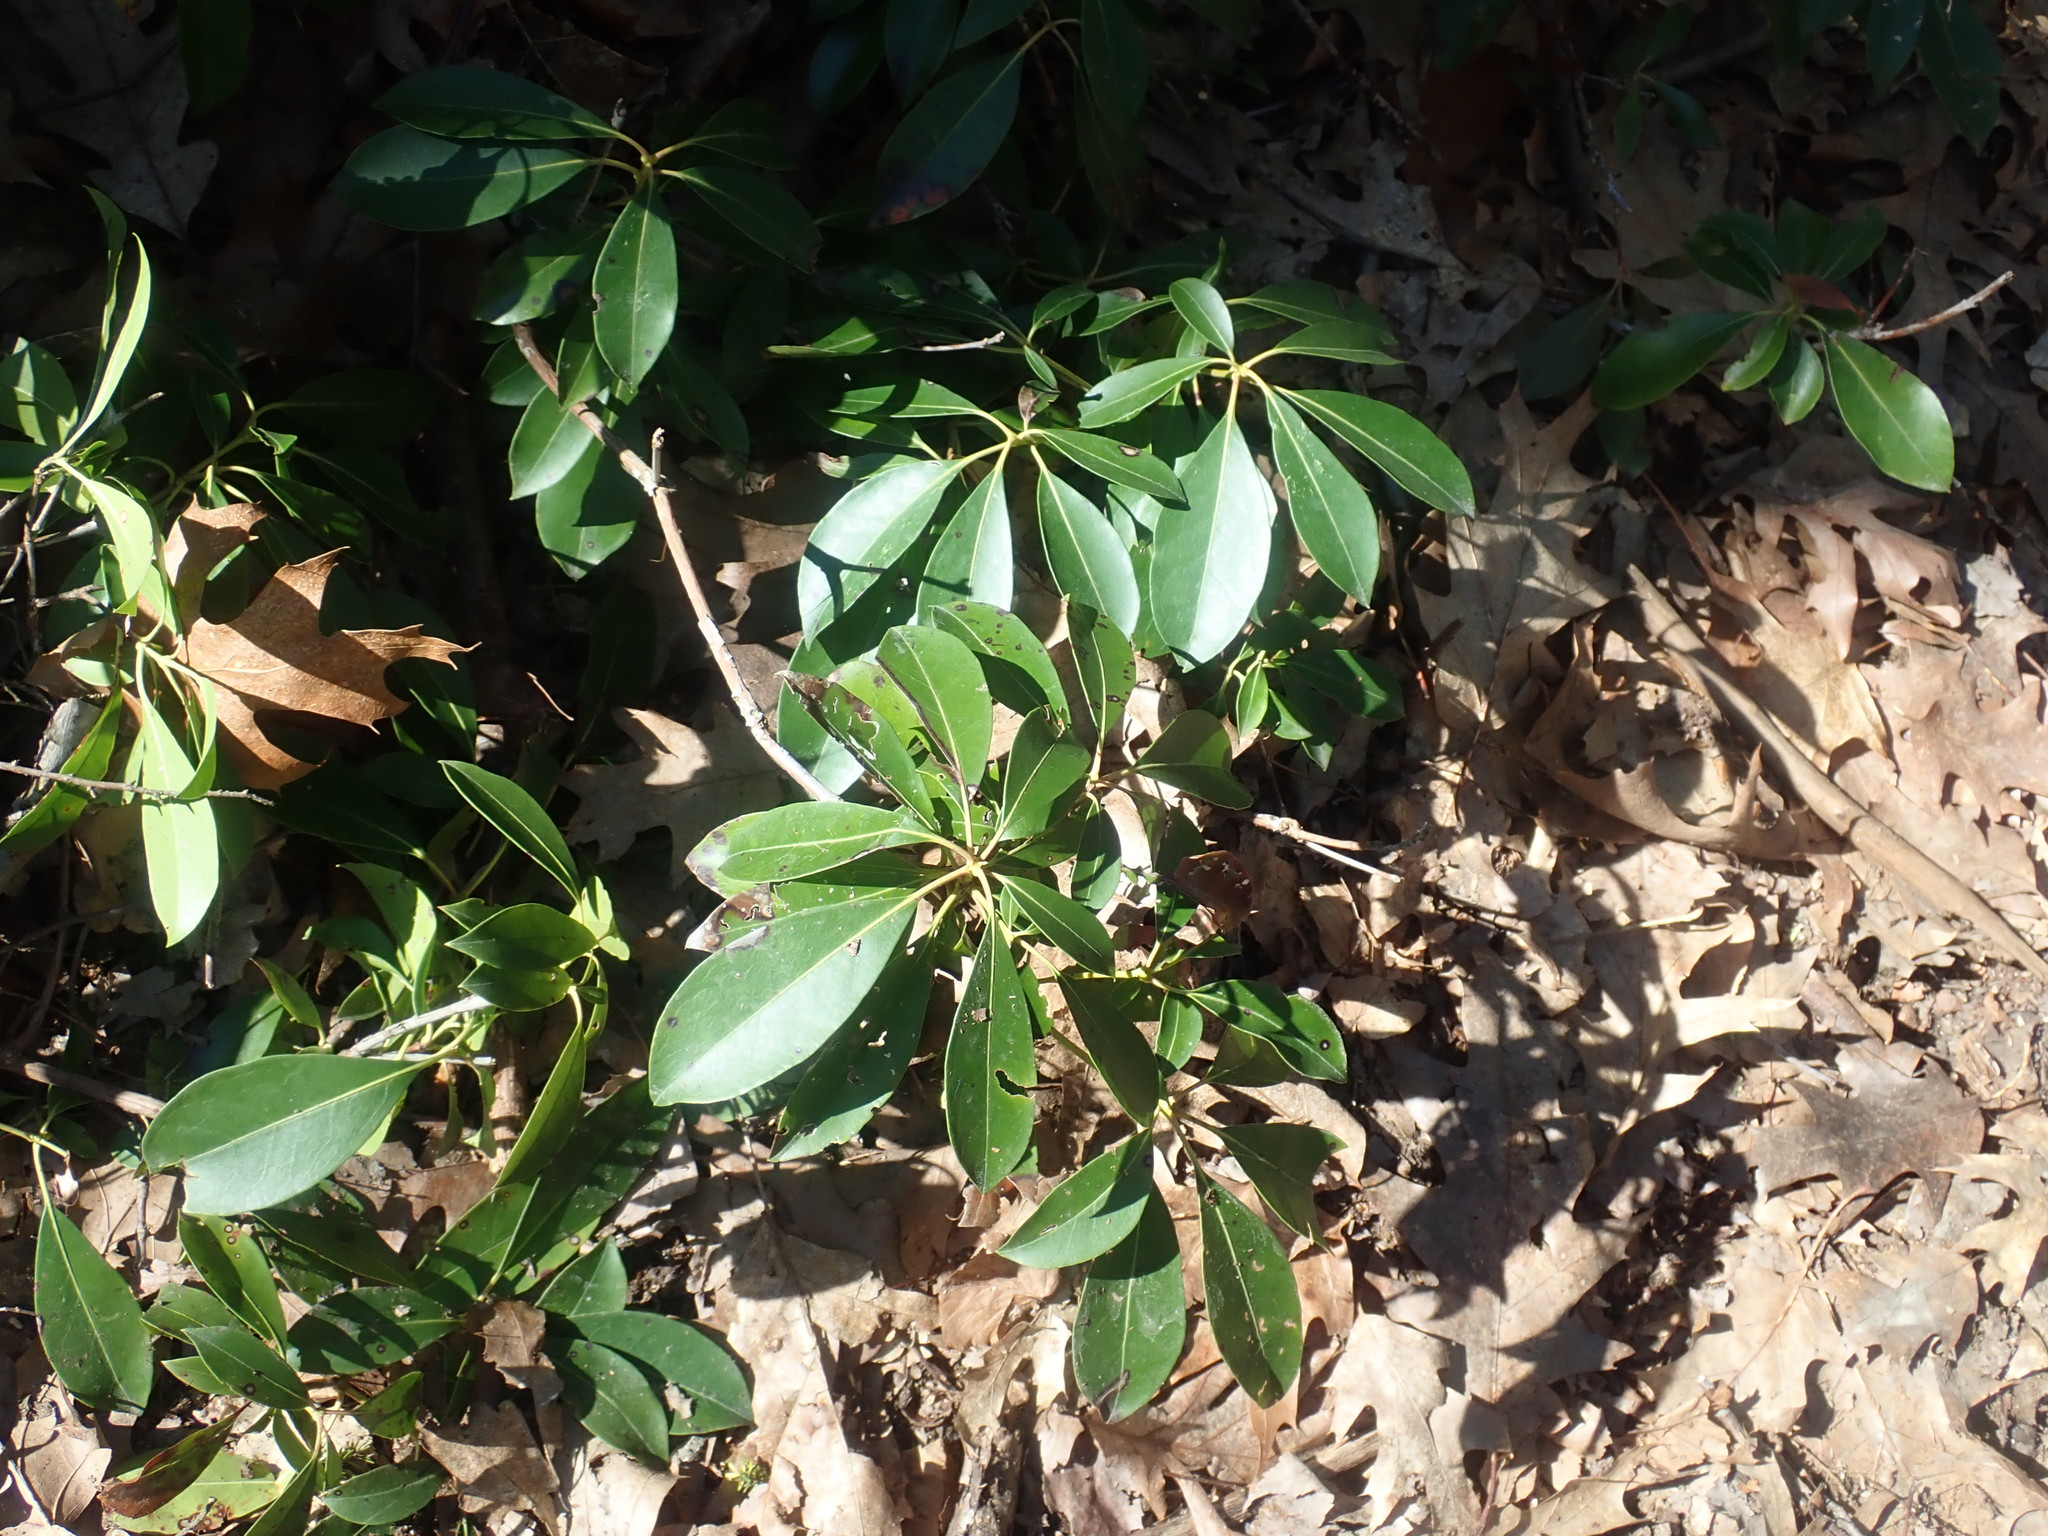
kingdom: Plantae
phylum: Tracheophyta
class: Magnoliopsida
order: Ericales
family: Ericaceae
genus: Kalmia
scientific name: Kalmia latifolia
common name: Mountain-laurel
